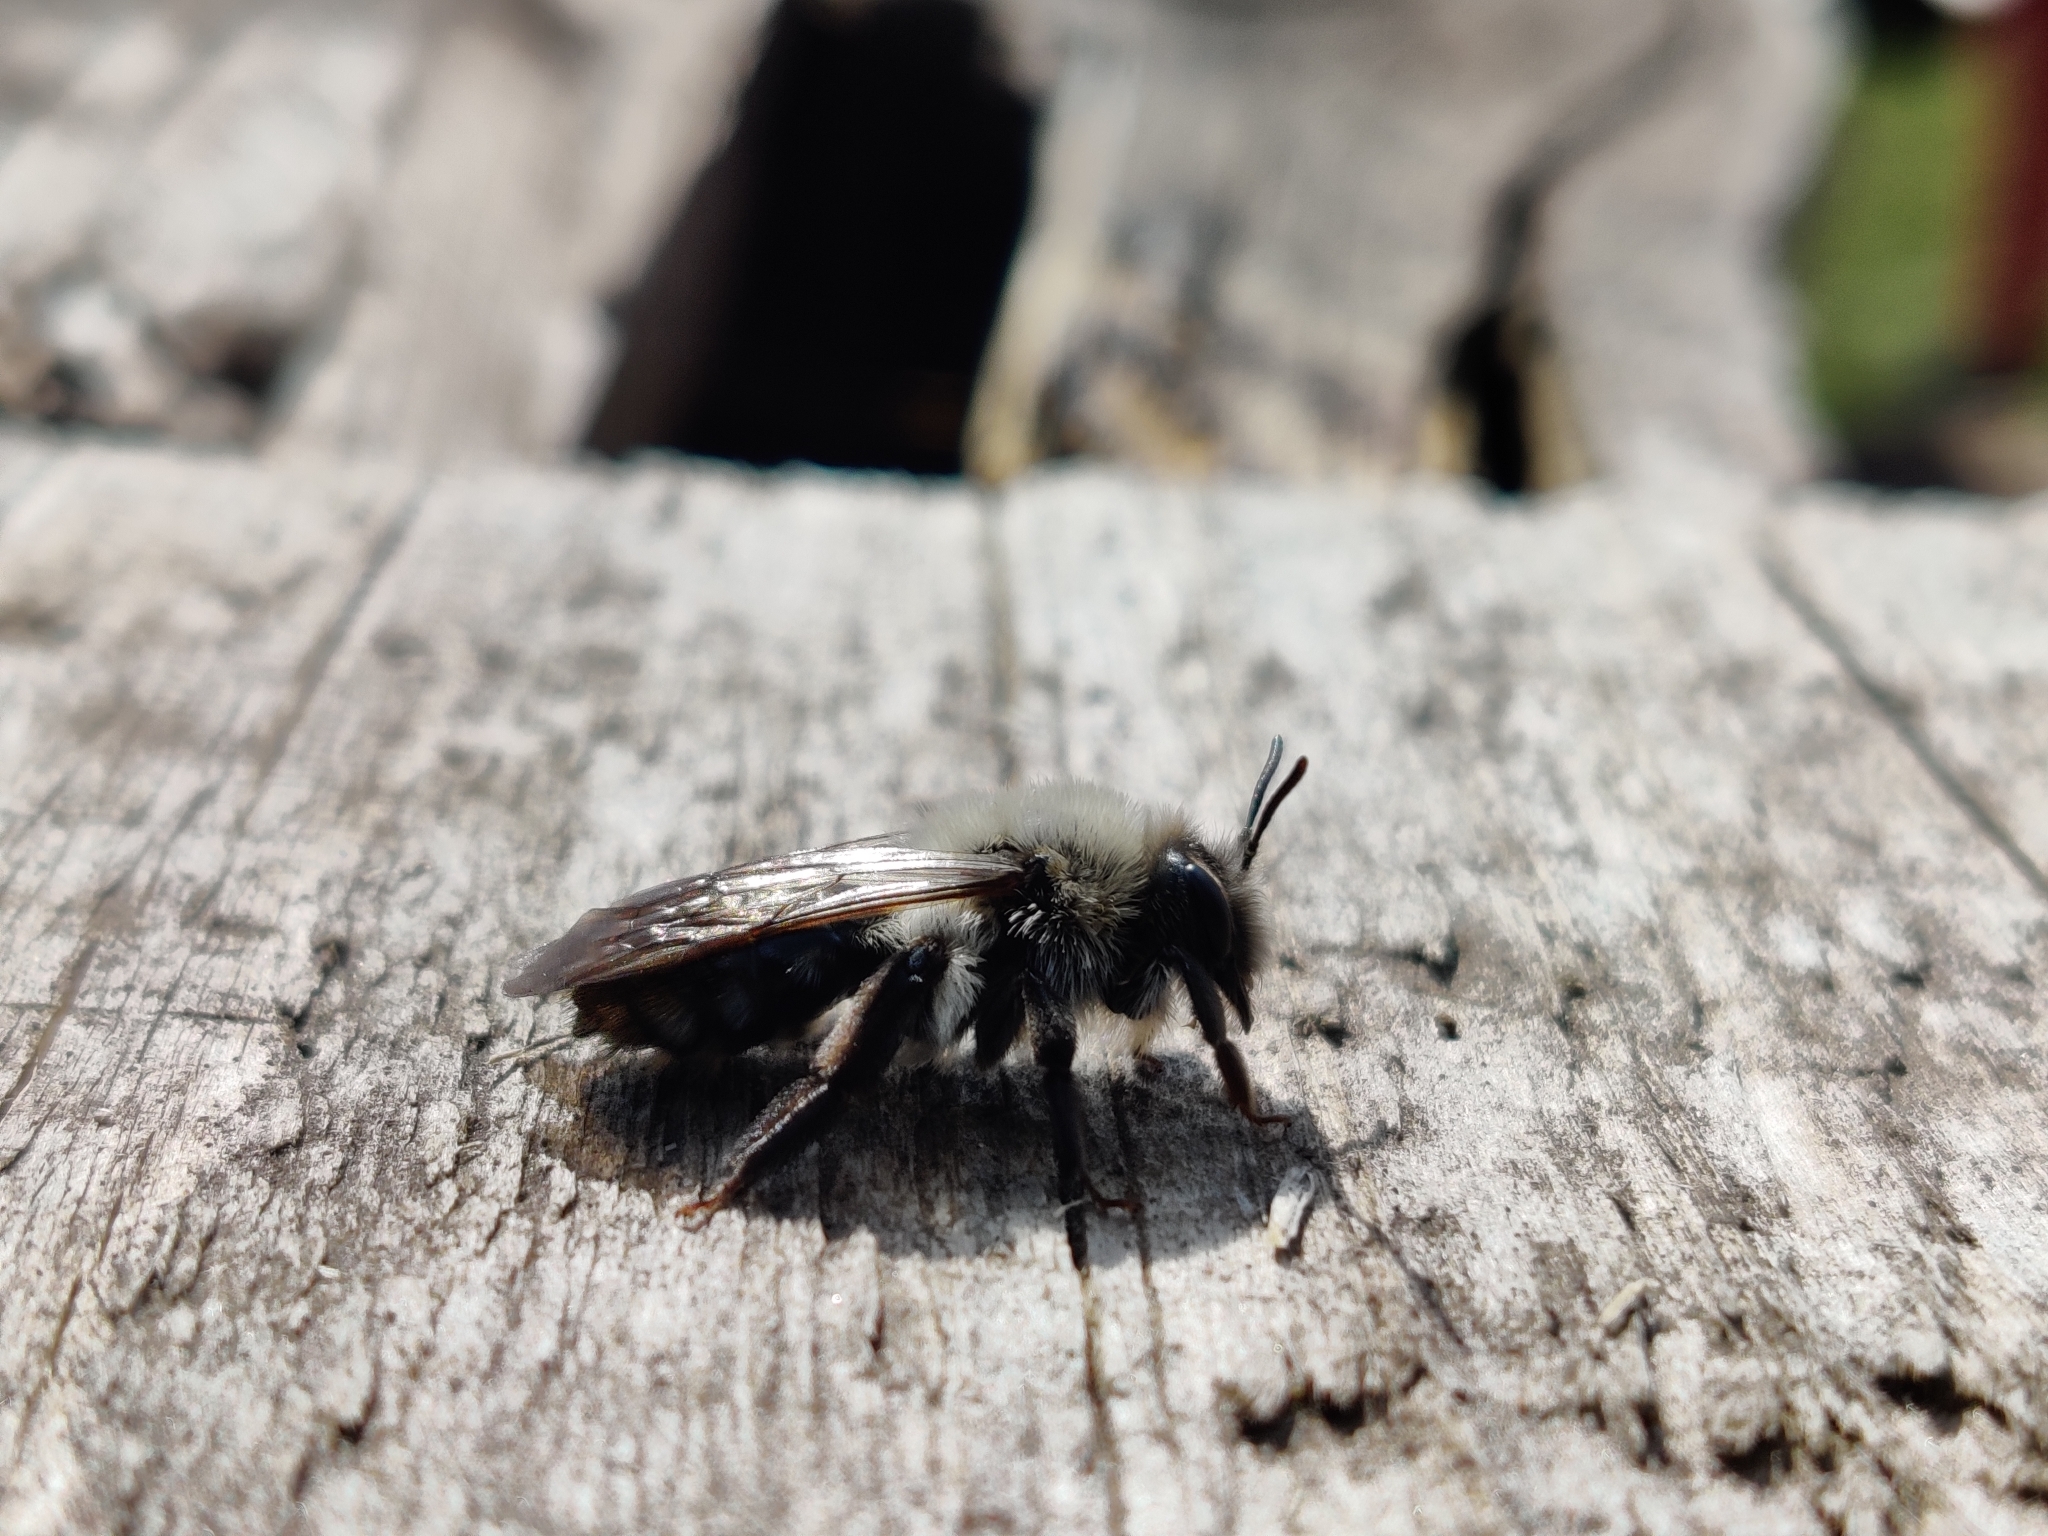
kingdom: Animalia
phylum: Arthropoda
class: Insecta
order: Hymenoptera
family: Andrenidae
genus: Andrena
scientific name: Andrena vaga
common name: Grey-backed mining bee
